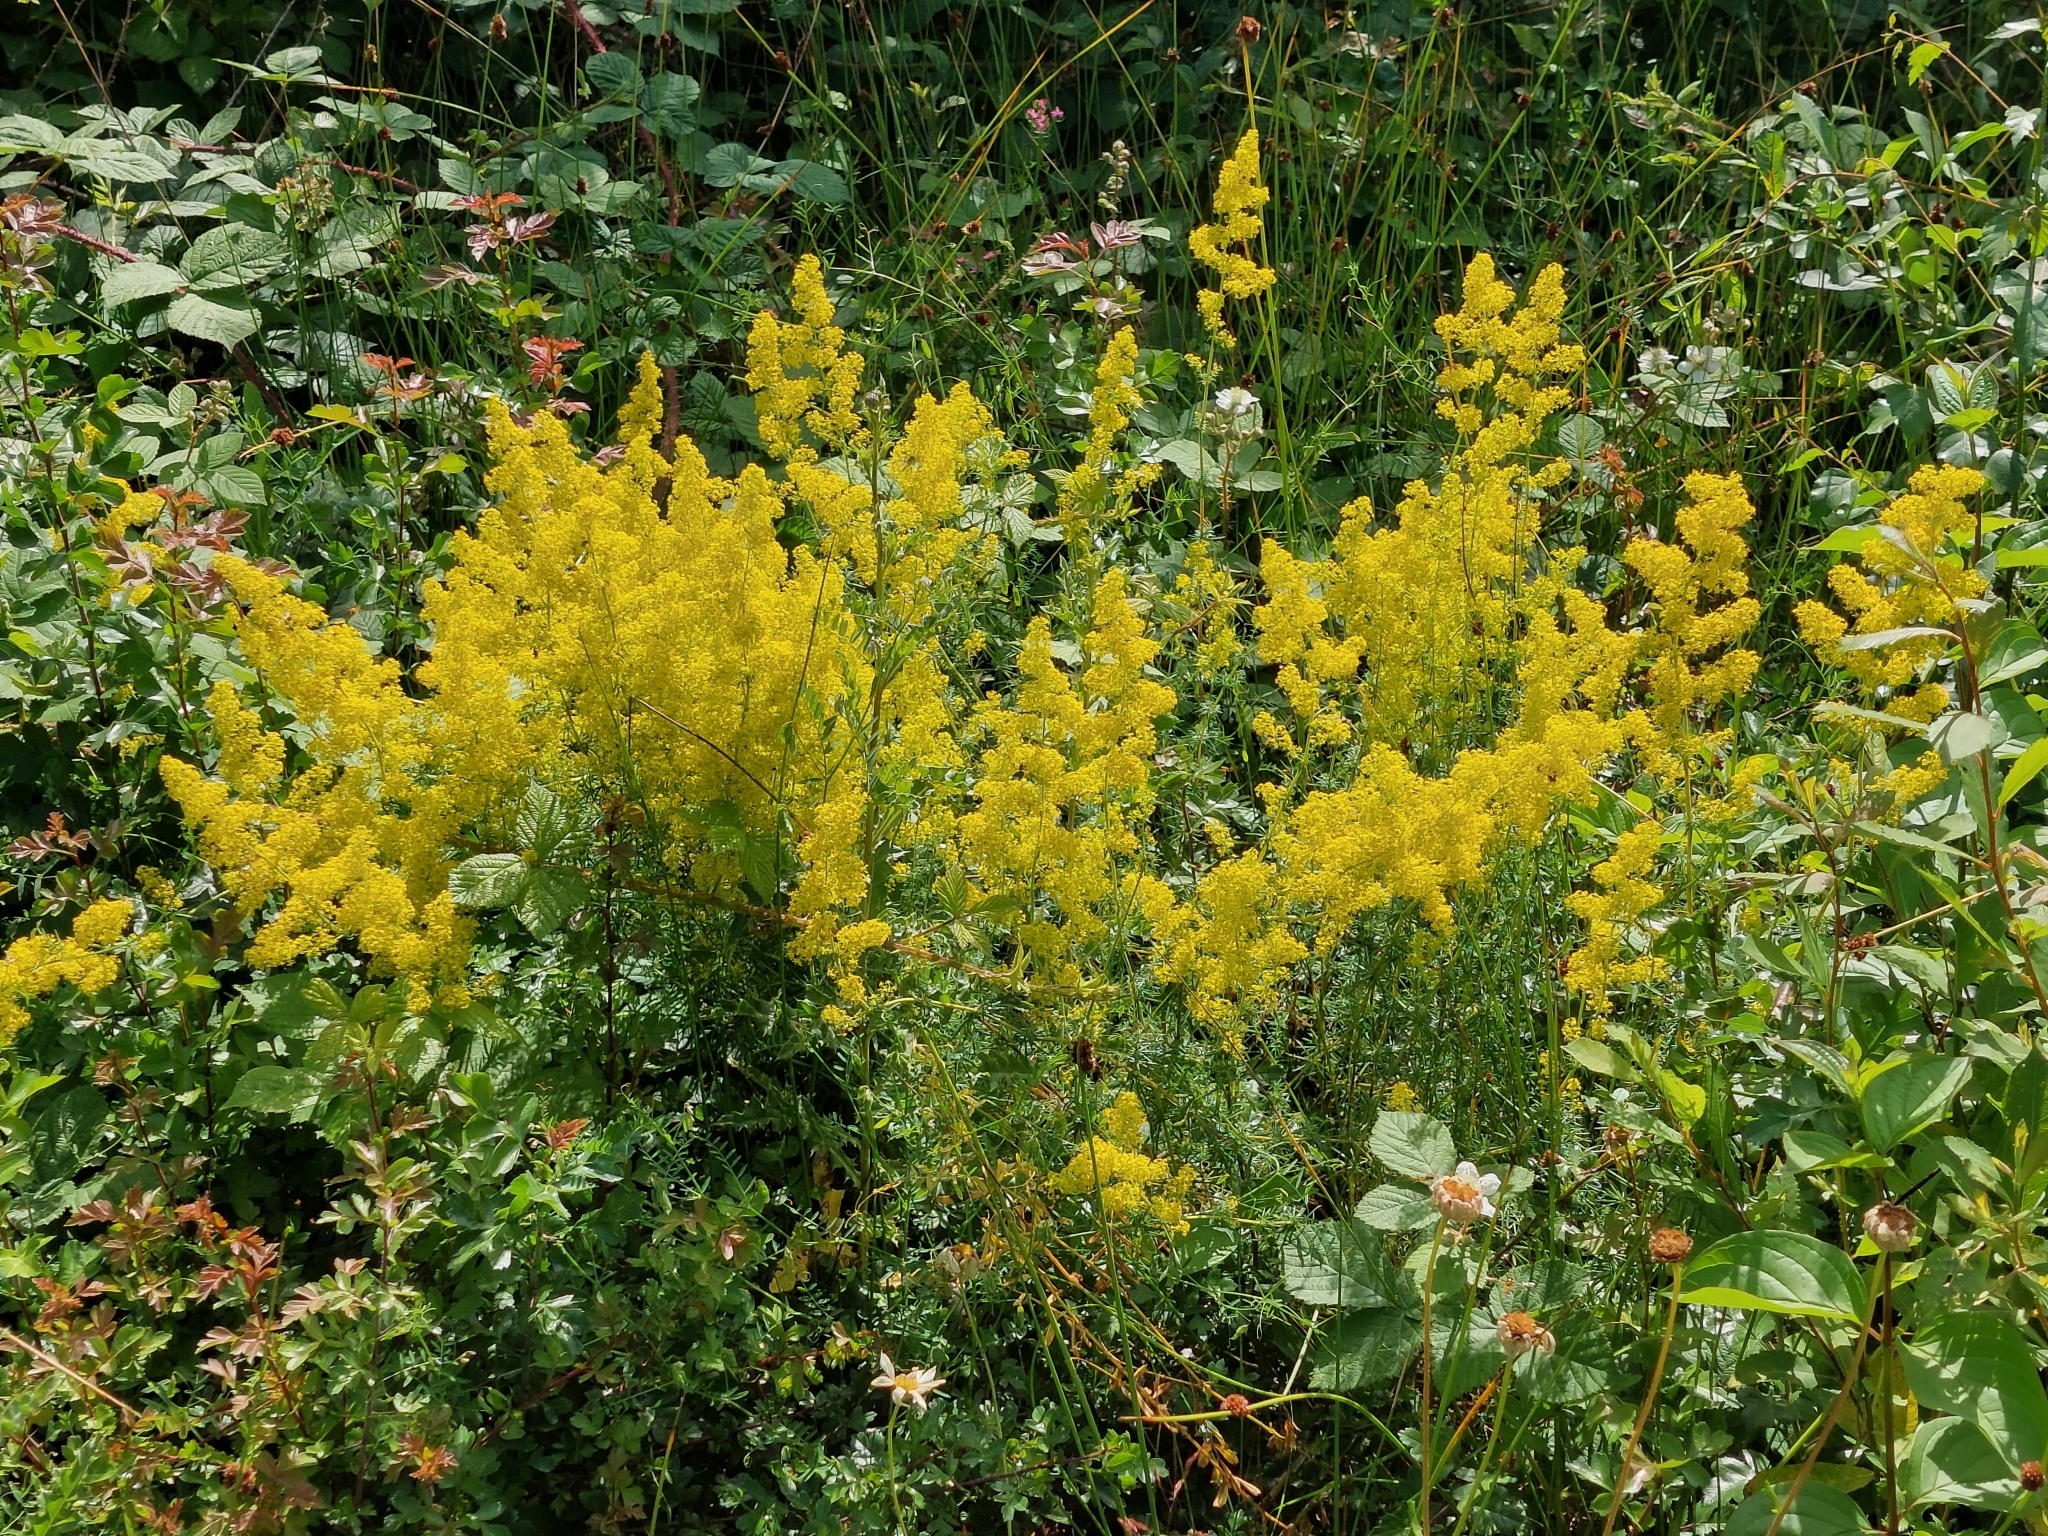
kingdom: Plantae
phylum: Tracheophyta
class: Magnoliopsida
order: Gentianales
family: Rubiaceae
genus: Galium
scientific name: Galium verum
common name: Lady's bedstraw
